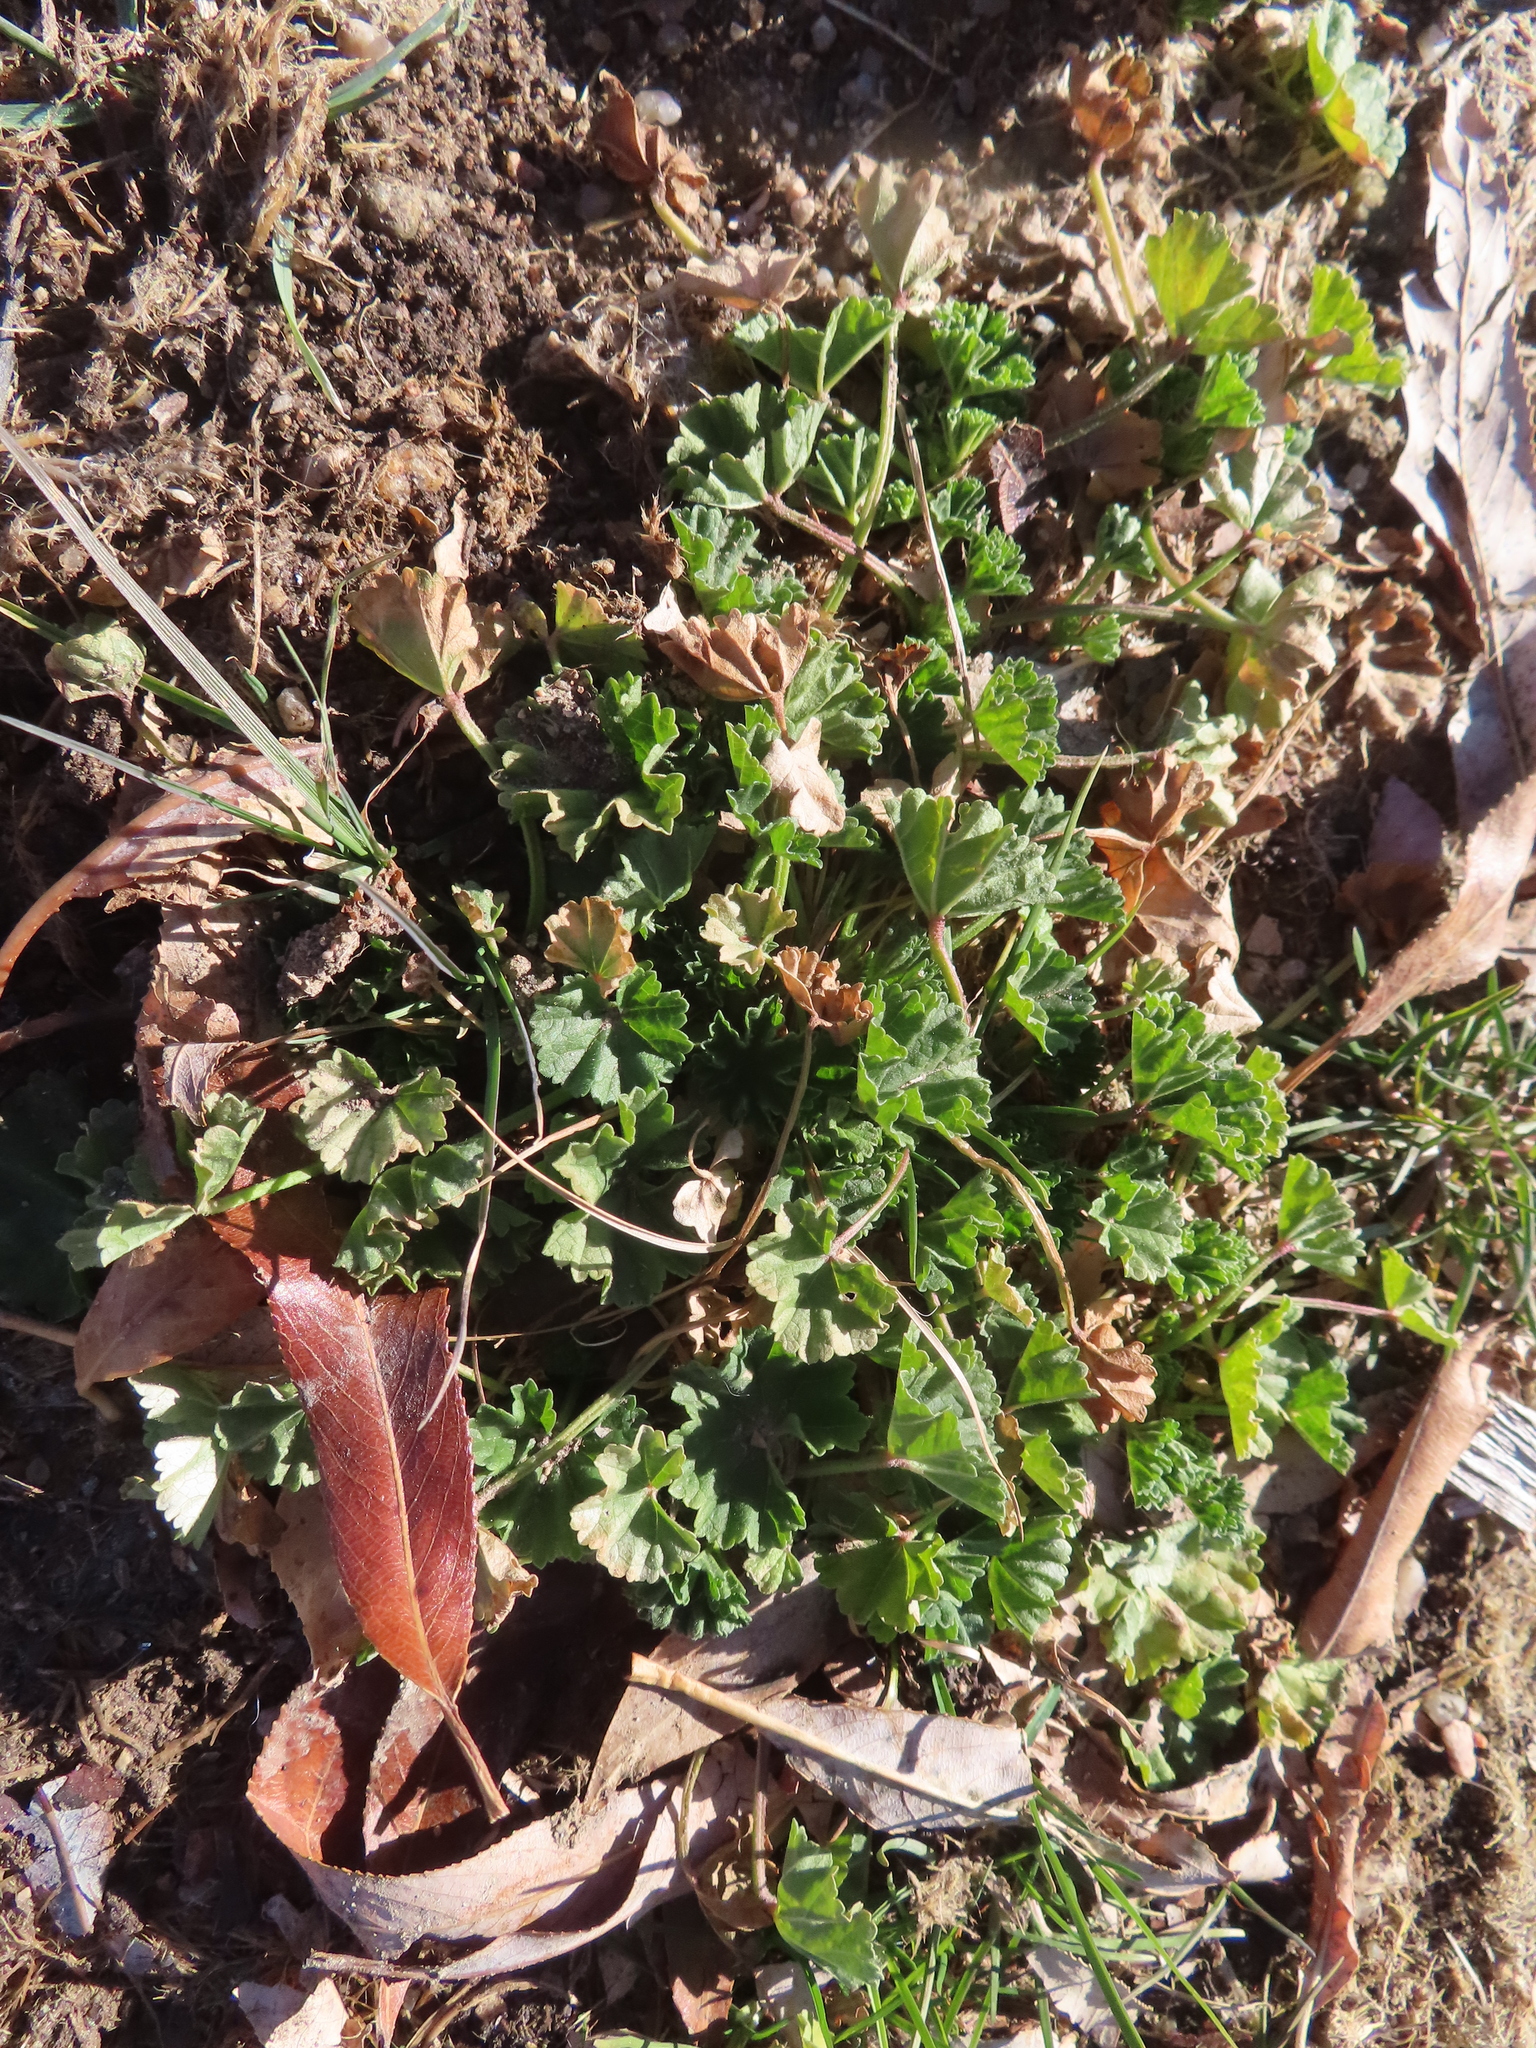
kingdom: Plantae
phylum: Tracheophyta
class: Magnoliopsida
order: Malvales
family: Malvaceae
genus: Malva
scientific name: Malva neglecta
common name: Common mallow
